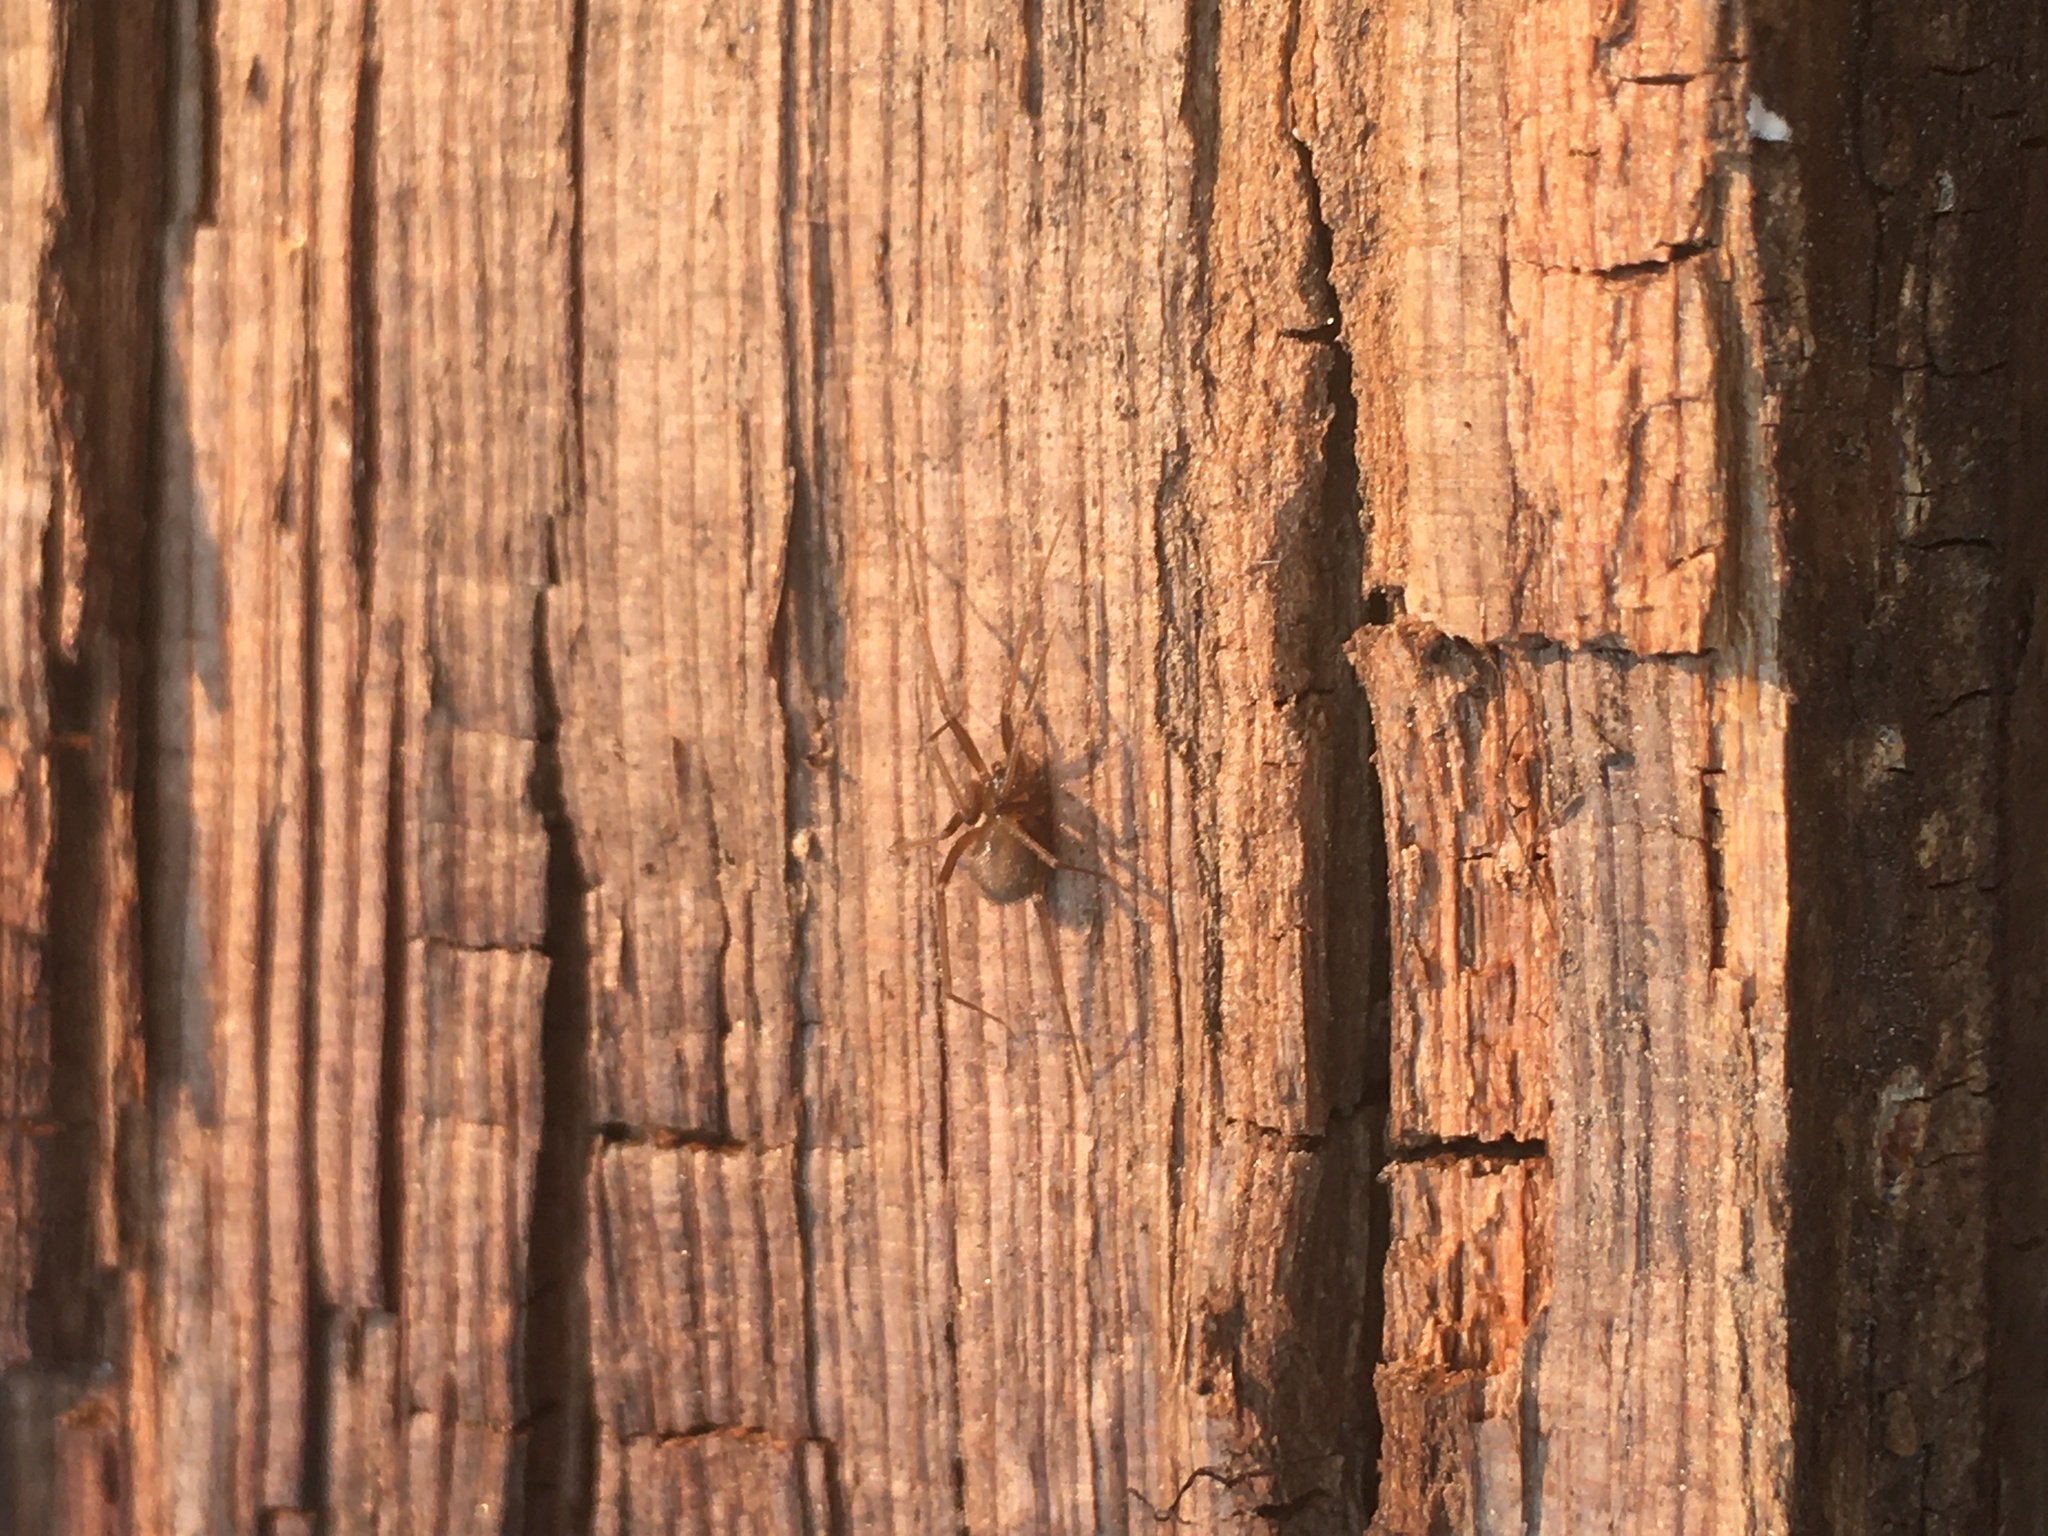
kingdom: Animalia
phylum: Arthropoda
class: Arachnida
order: Araneae
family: Pholcidae
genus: Pholcophora
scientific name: Pholcophora americana
